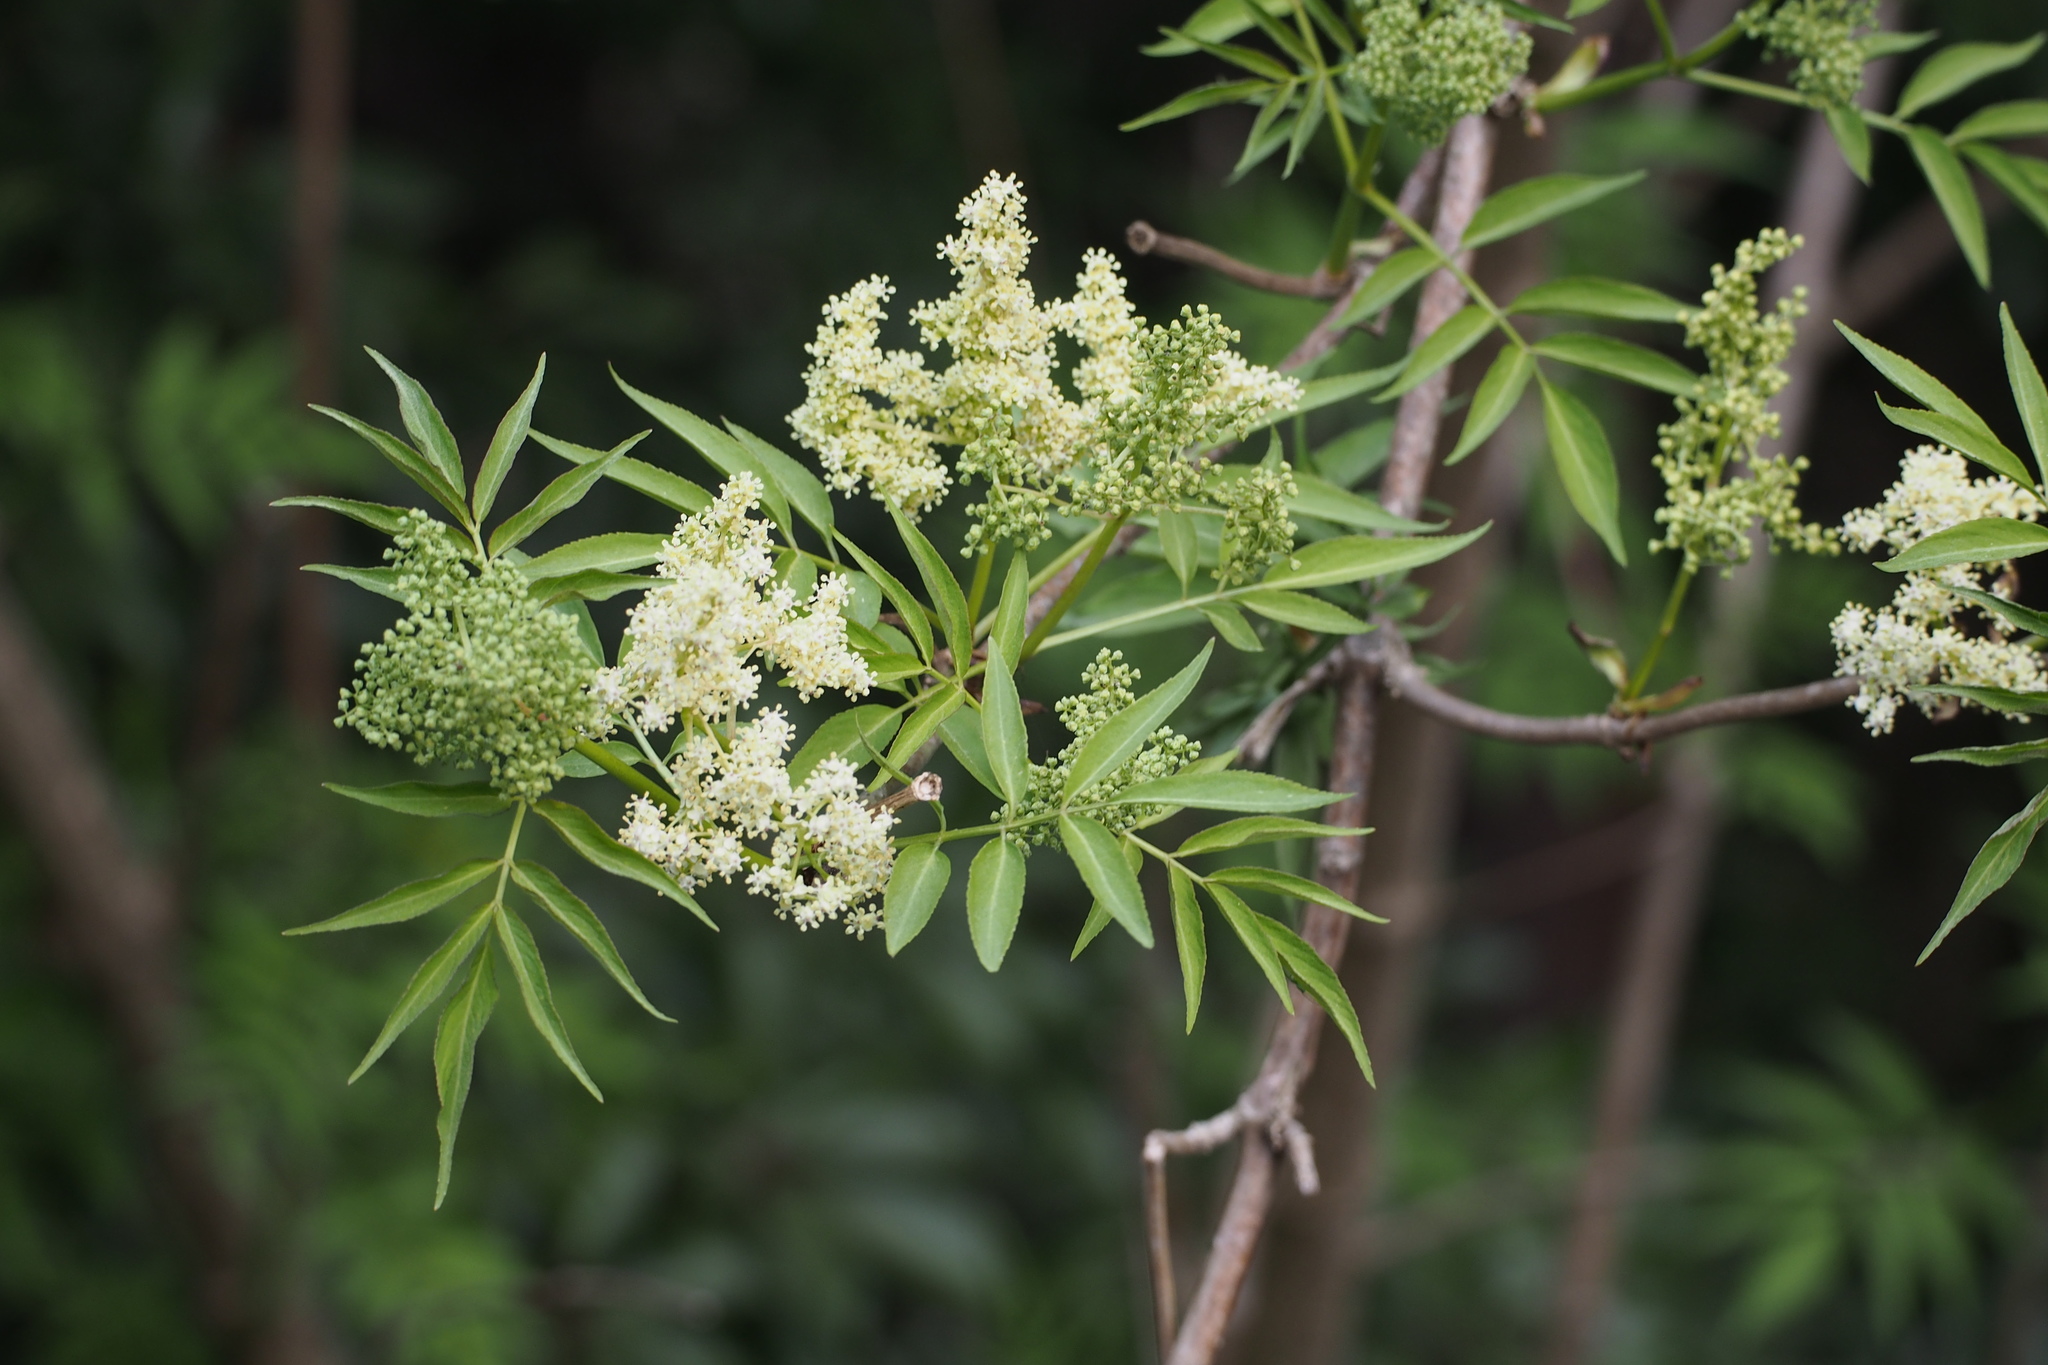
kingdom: Plantae
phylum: Tracheophyta
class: Magnoliopsida
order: Dipsacales
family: Viburnaceae
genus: Sambucus
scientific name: Sambucus sieboldiana
